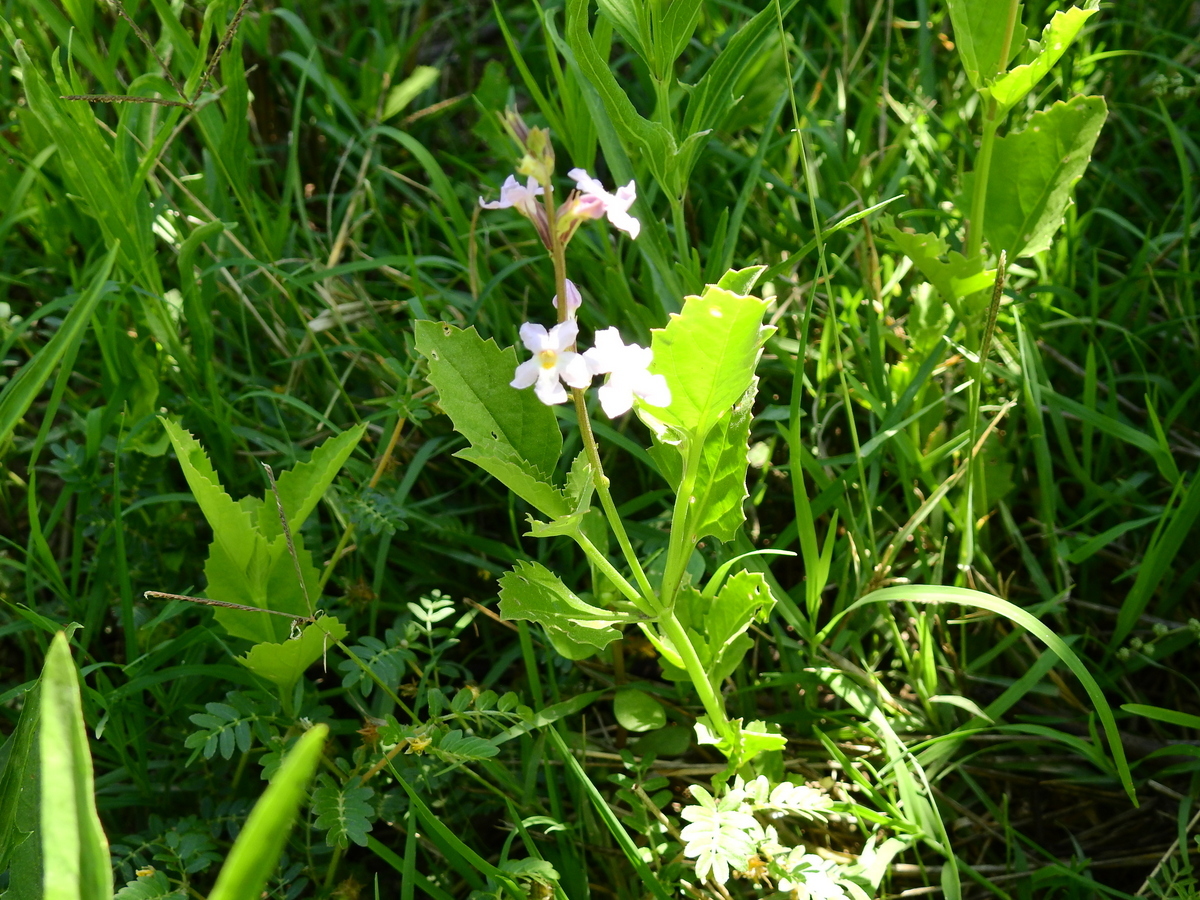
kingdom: Plantae
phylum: Tracheophyta
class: Magnoliopsida
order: Lamiales
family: Verbenaceae
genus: Pitraea
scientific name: Pitraea cuneato-ovata
